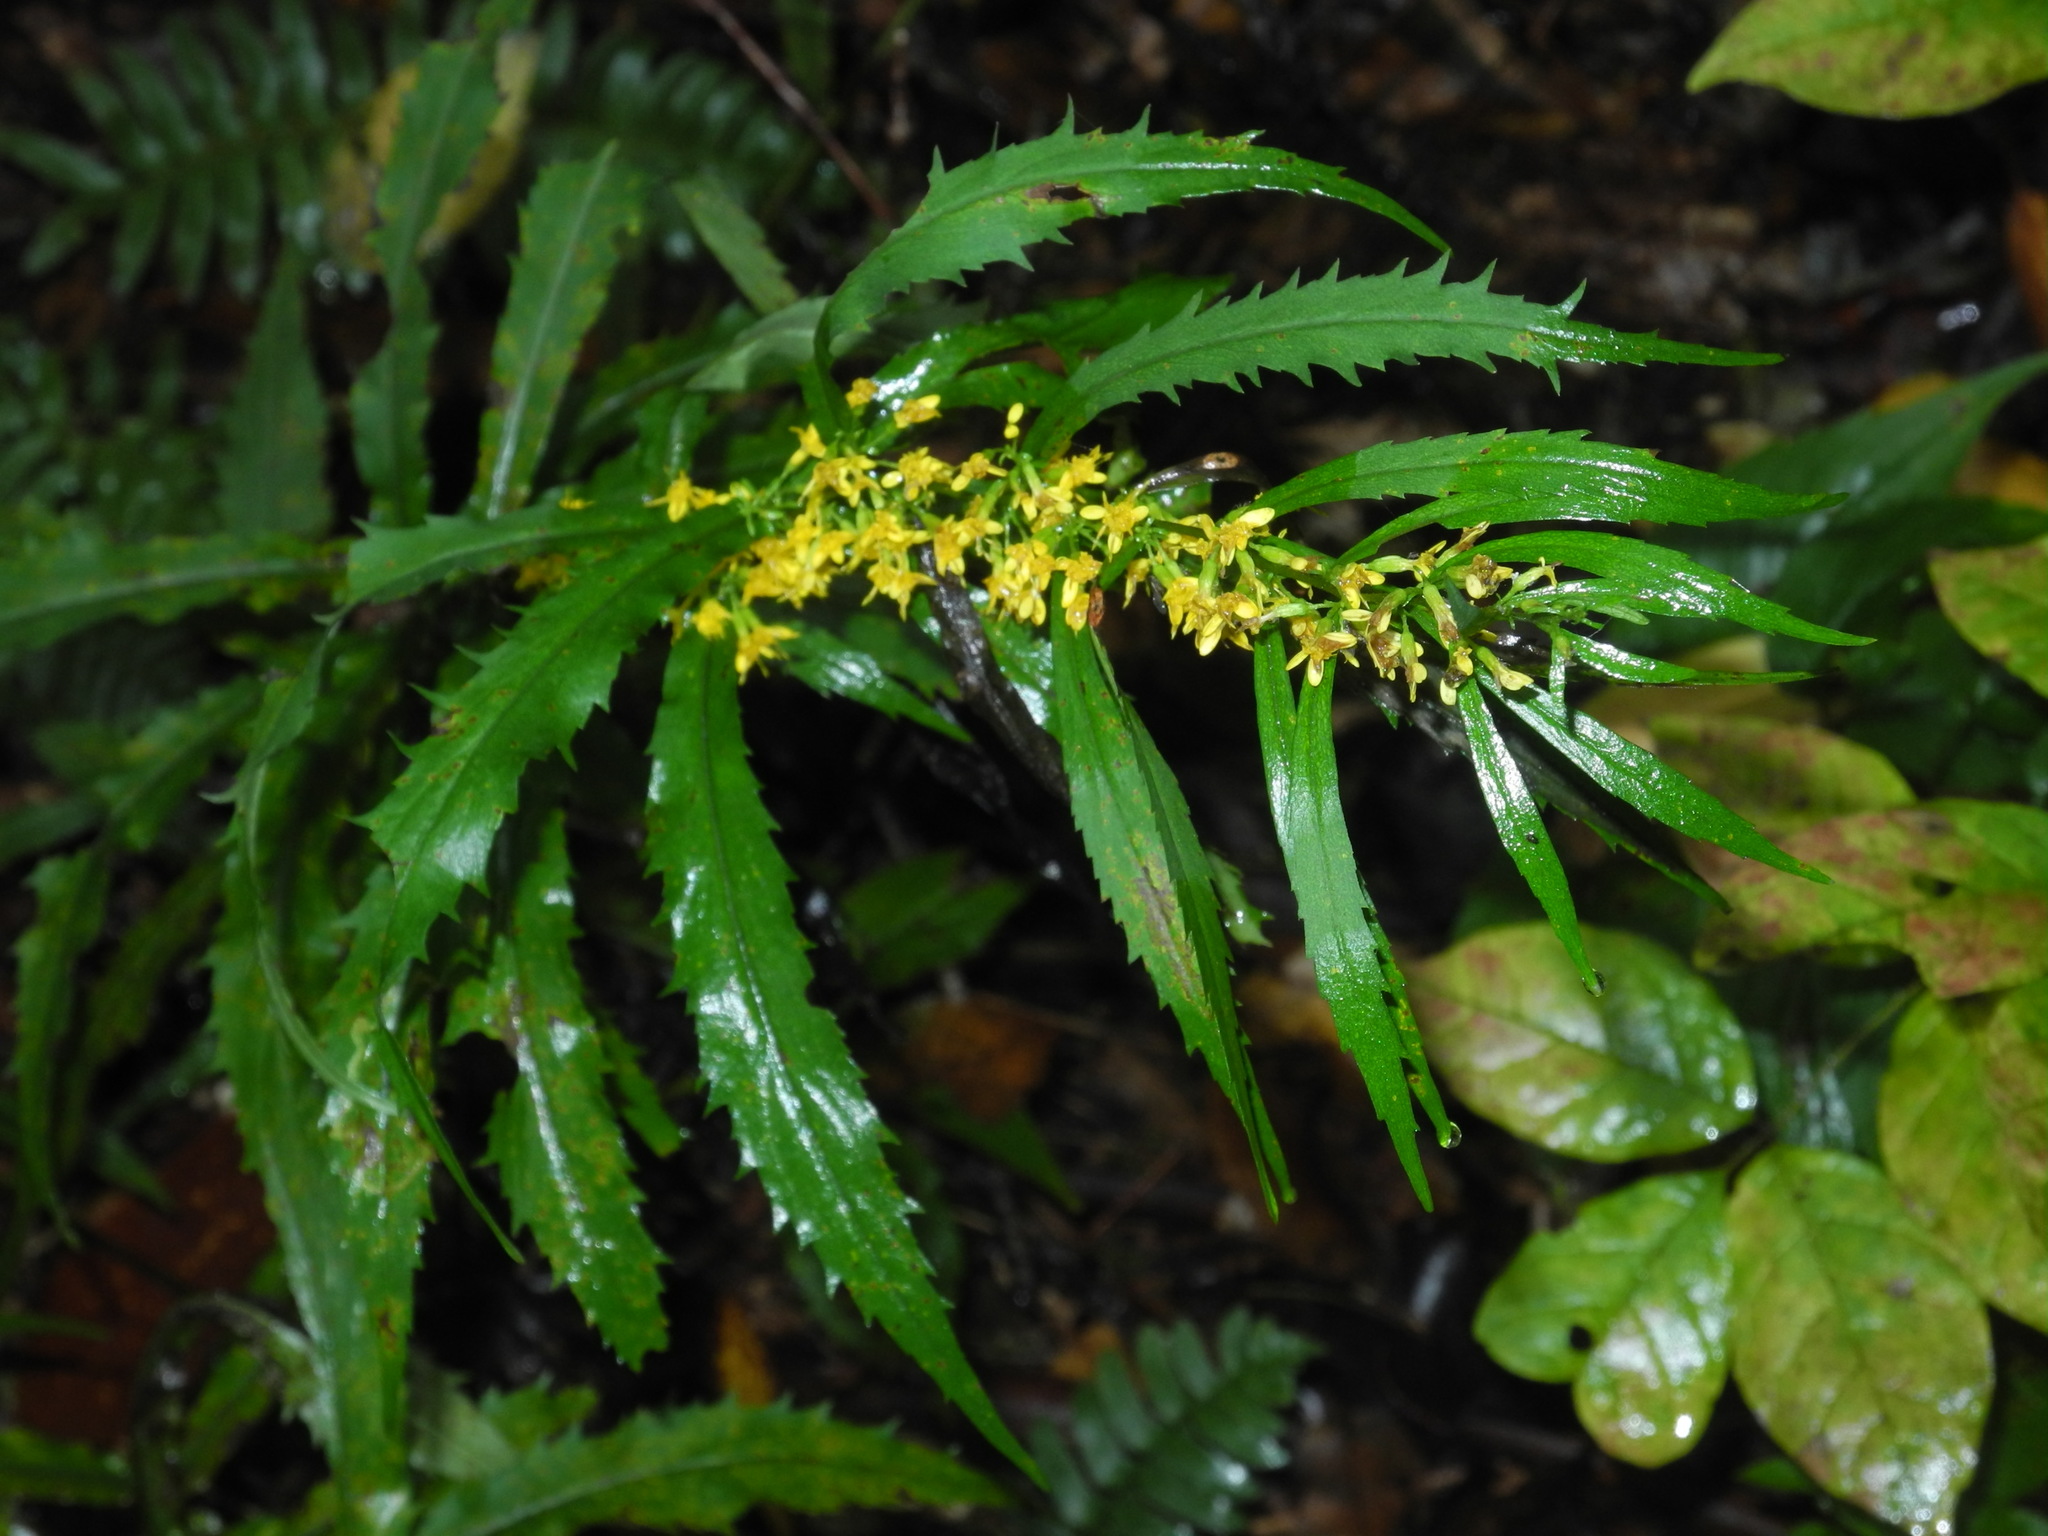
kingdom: Plantae
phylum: Tracheophyta
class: Magnoliopsida
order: Asterales
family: Asteraceae
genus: Solidago
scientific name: Solidago caesia
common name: Woodland goldenrod
